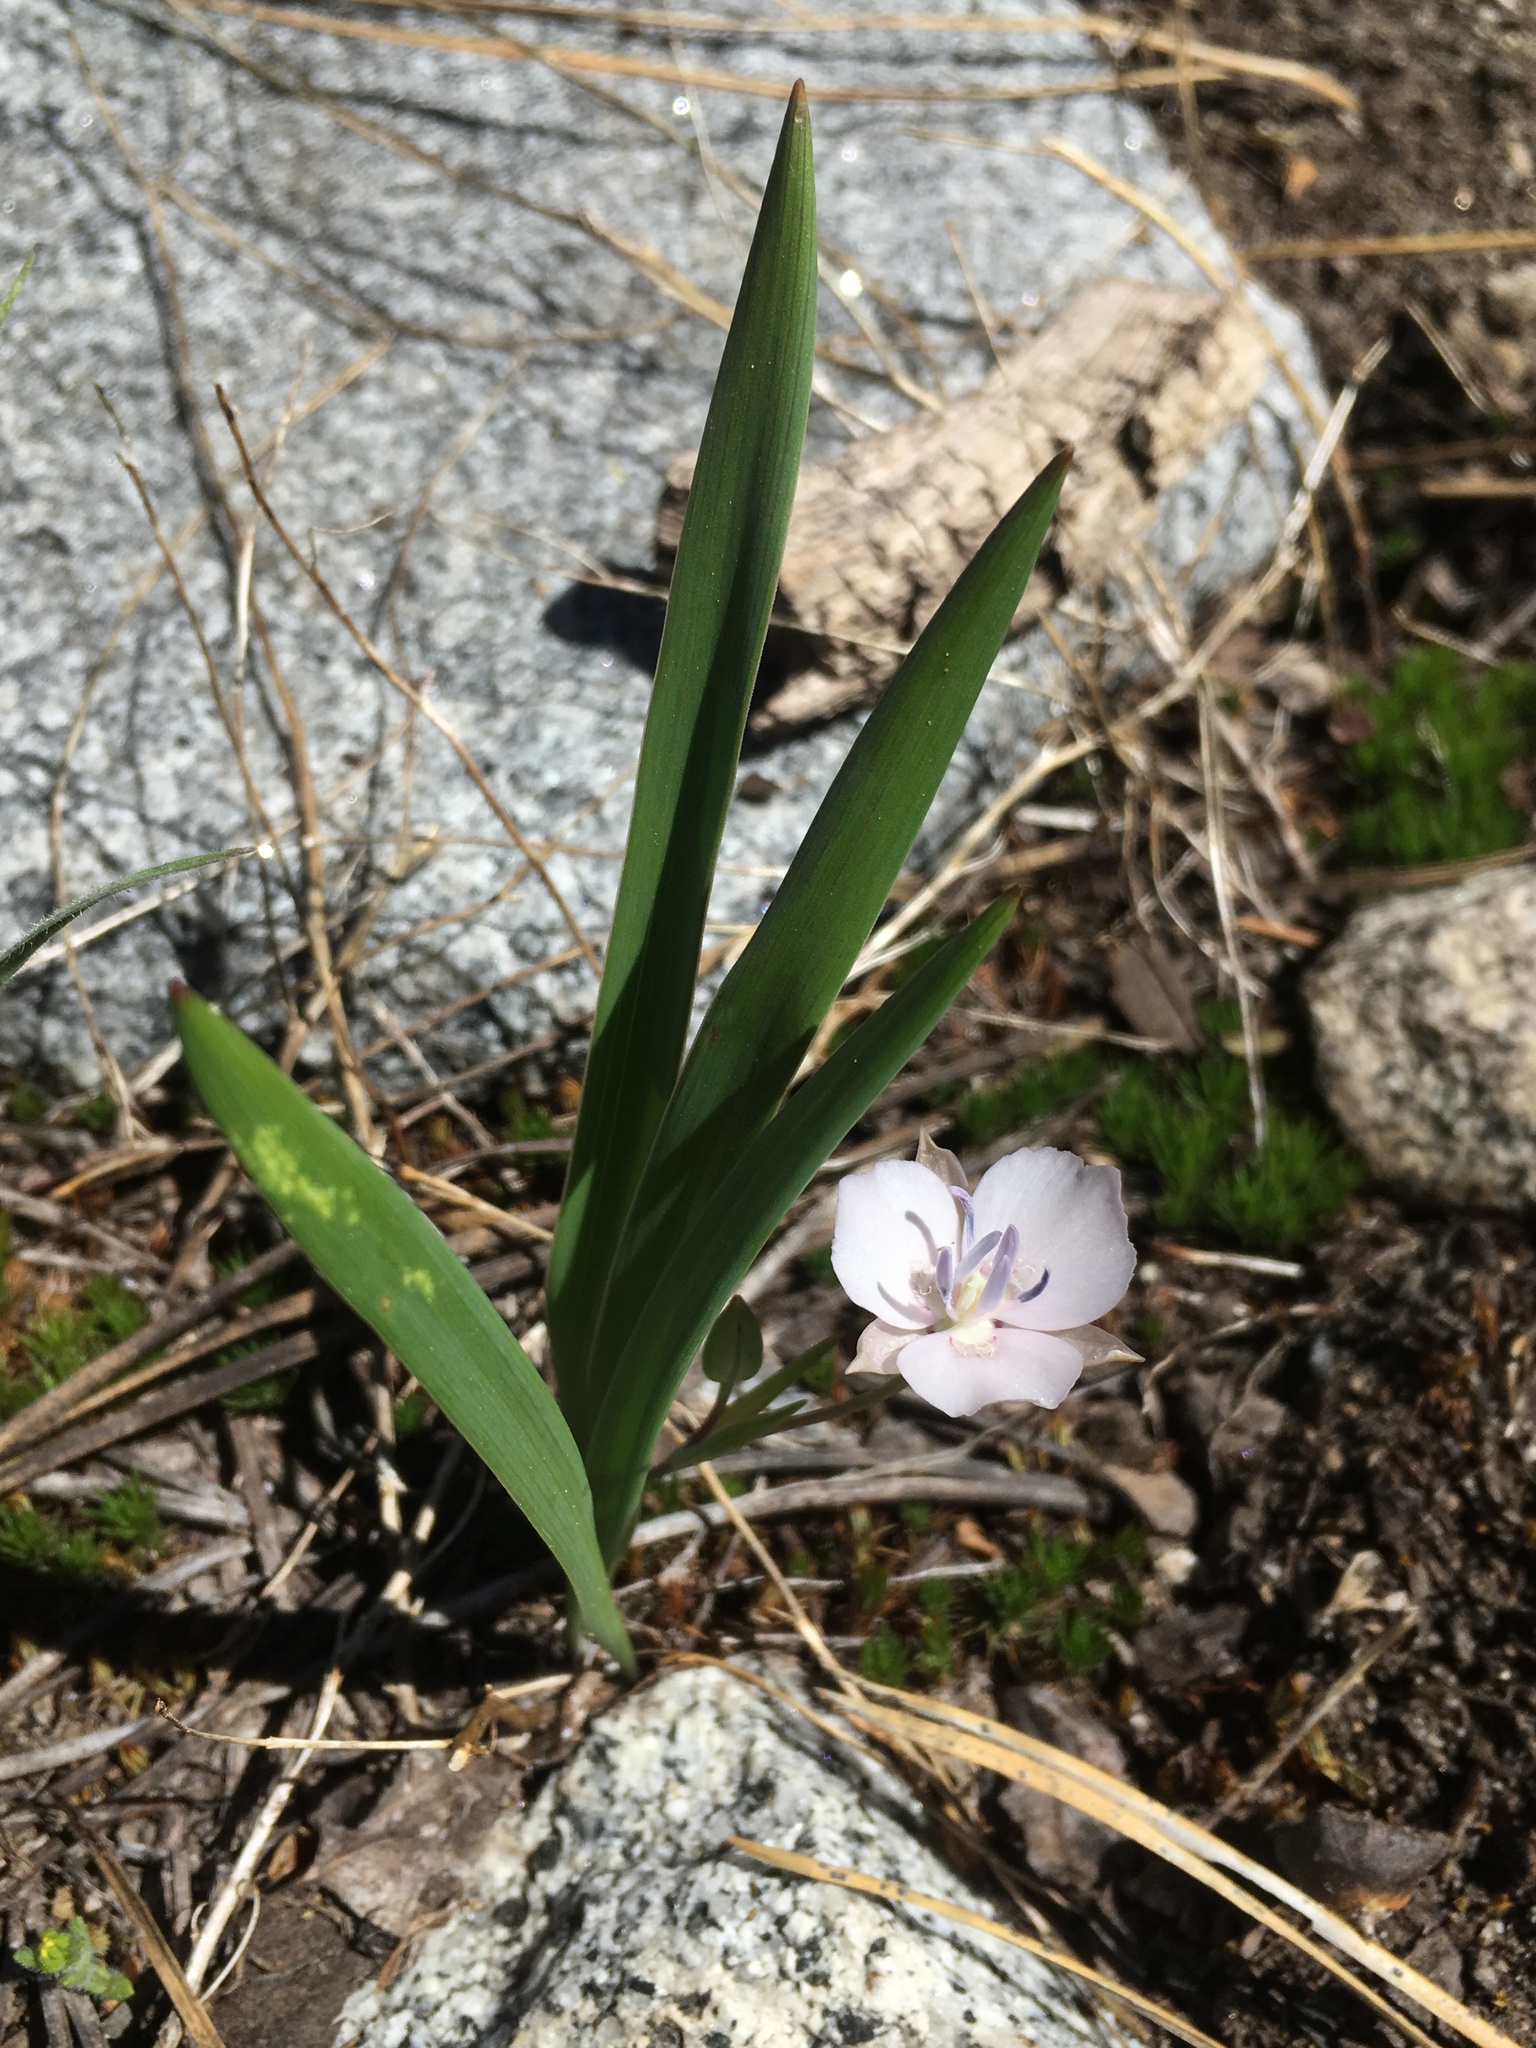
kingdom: Plantae
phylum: Tracheophyta
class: Liliopsida
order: Liliales
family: Liliaceae
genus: Calochortus
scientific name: Calochortus minimus
